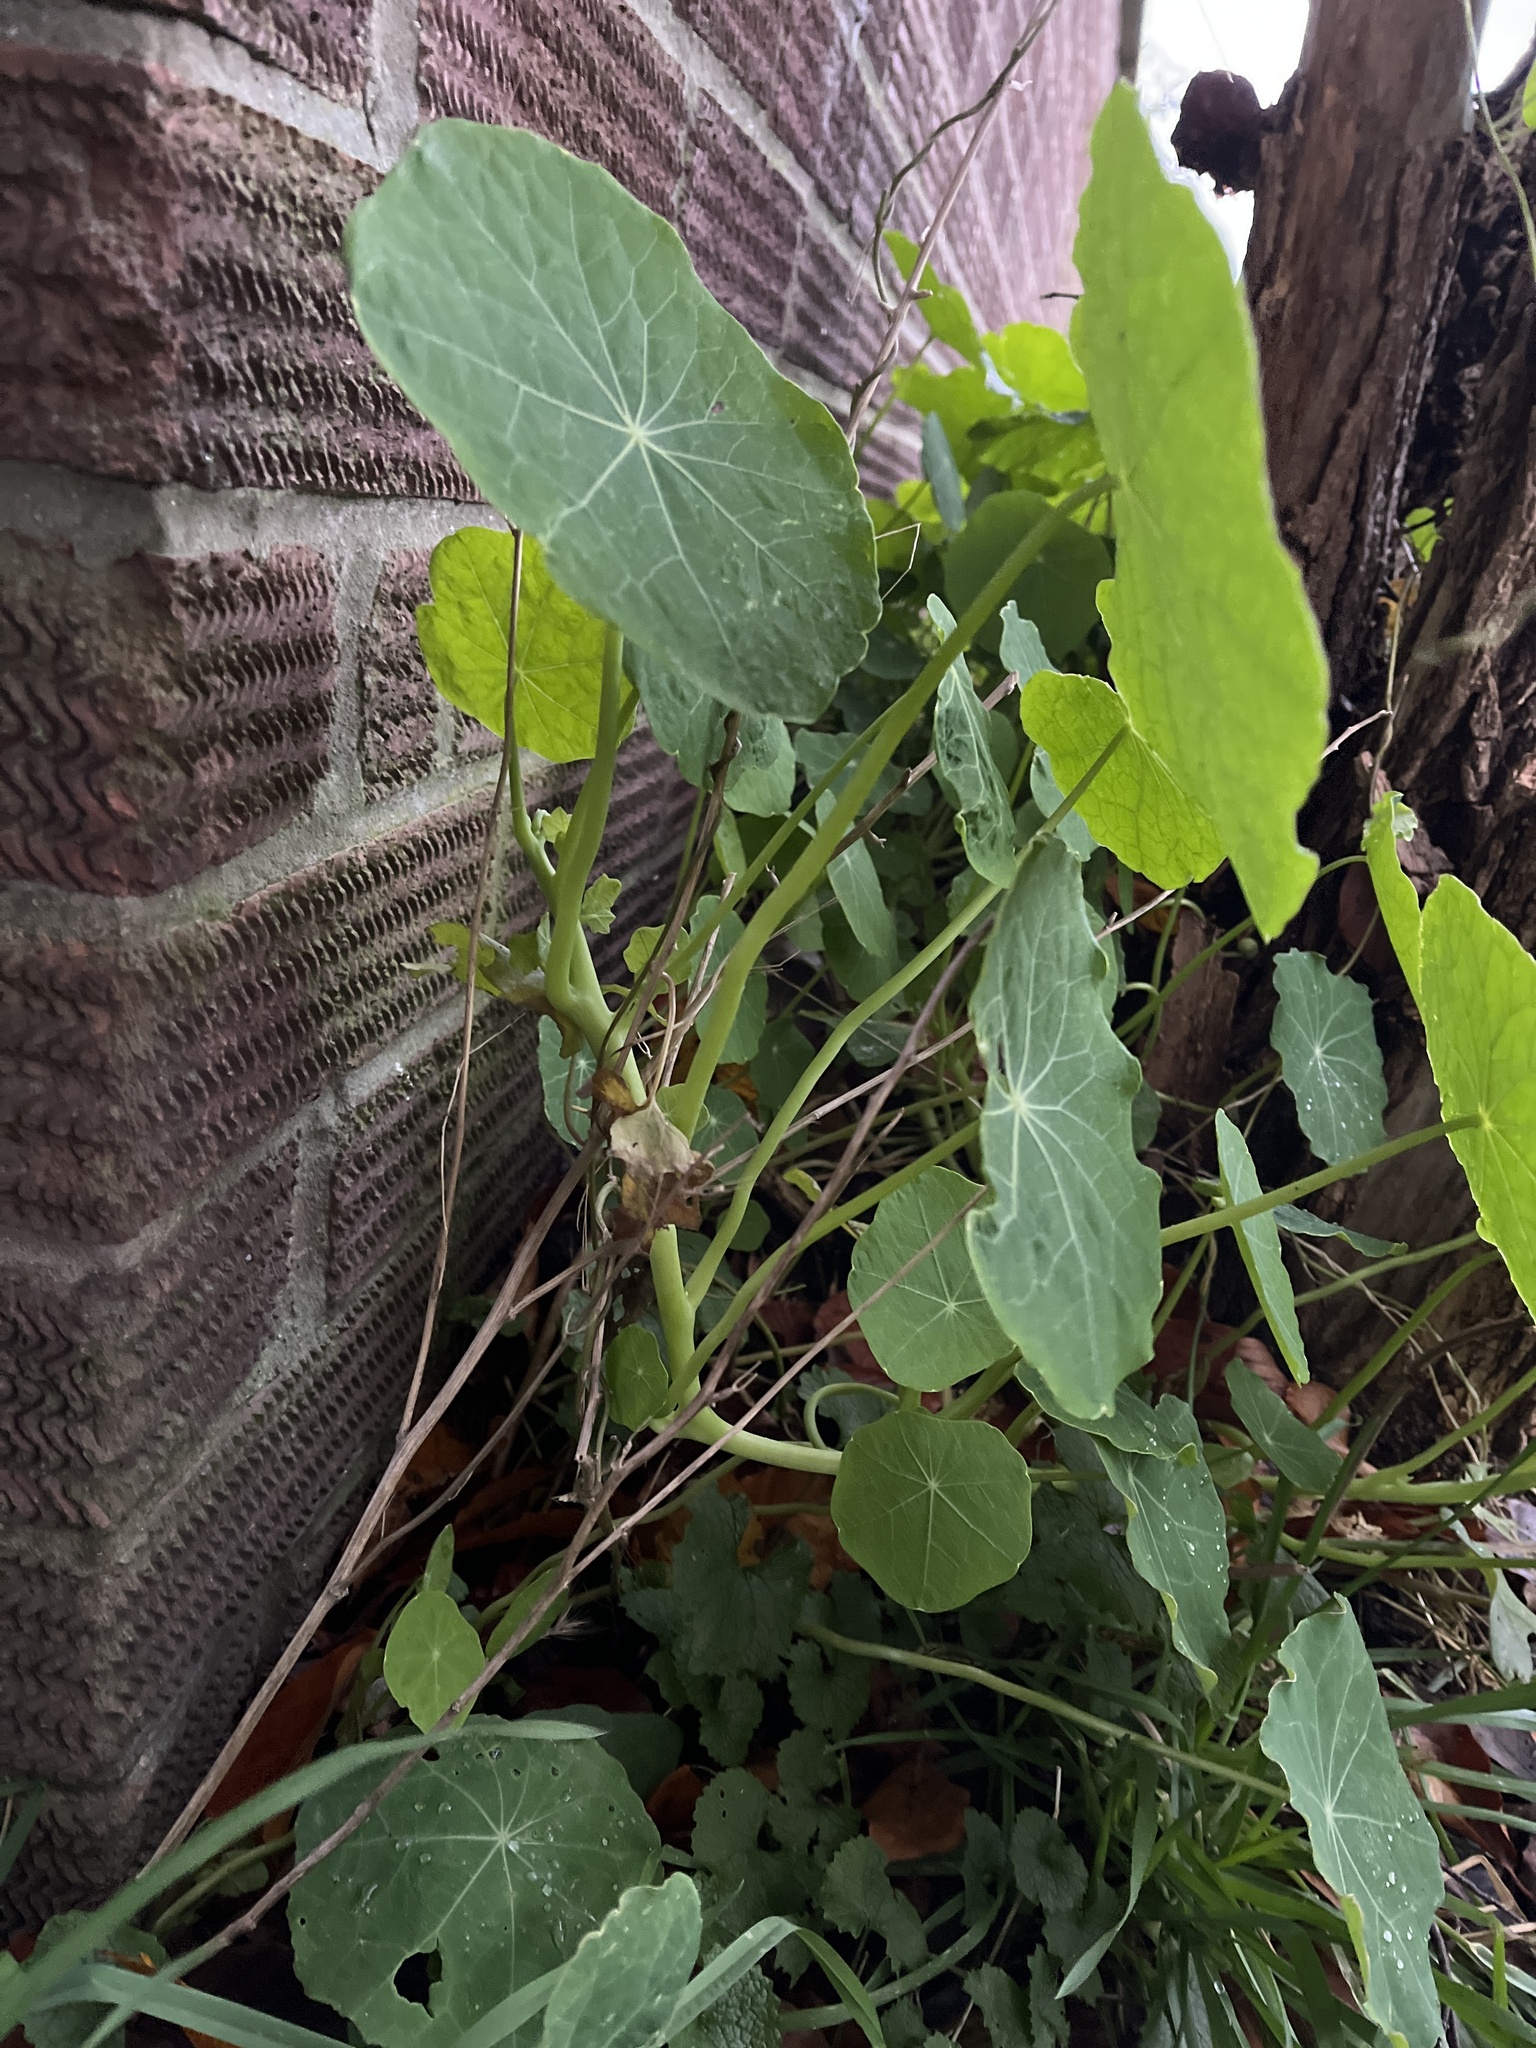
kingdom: Plantae
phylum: Tracheophyta
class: Magnoliopsida
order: Brassicales
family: Tropaeolaceae
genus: Tropaeolum
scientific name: Tropaeolum majus
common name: Nasturtium
